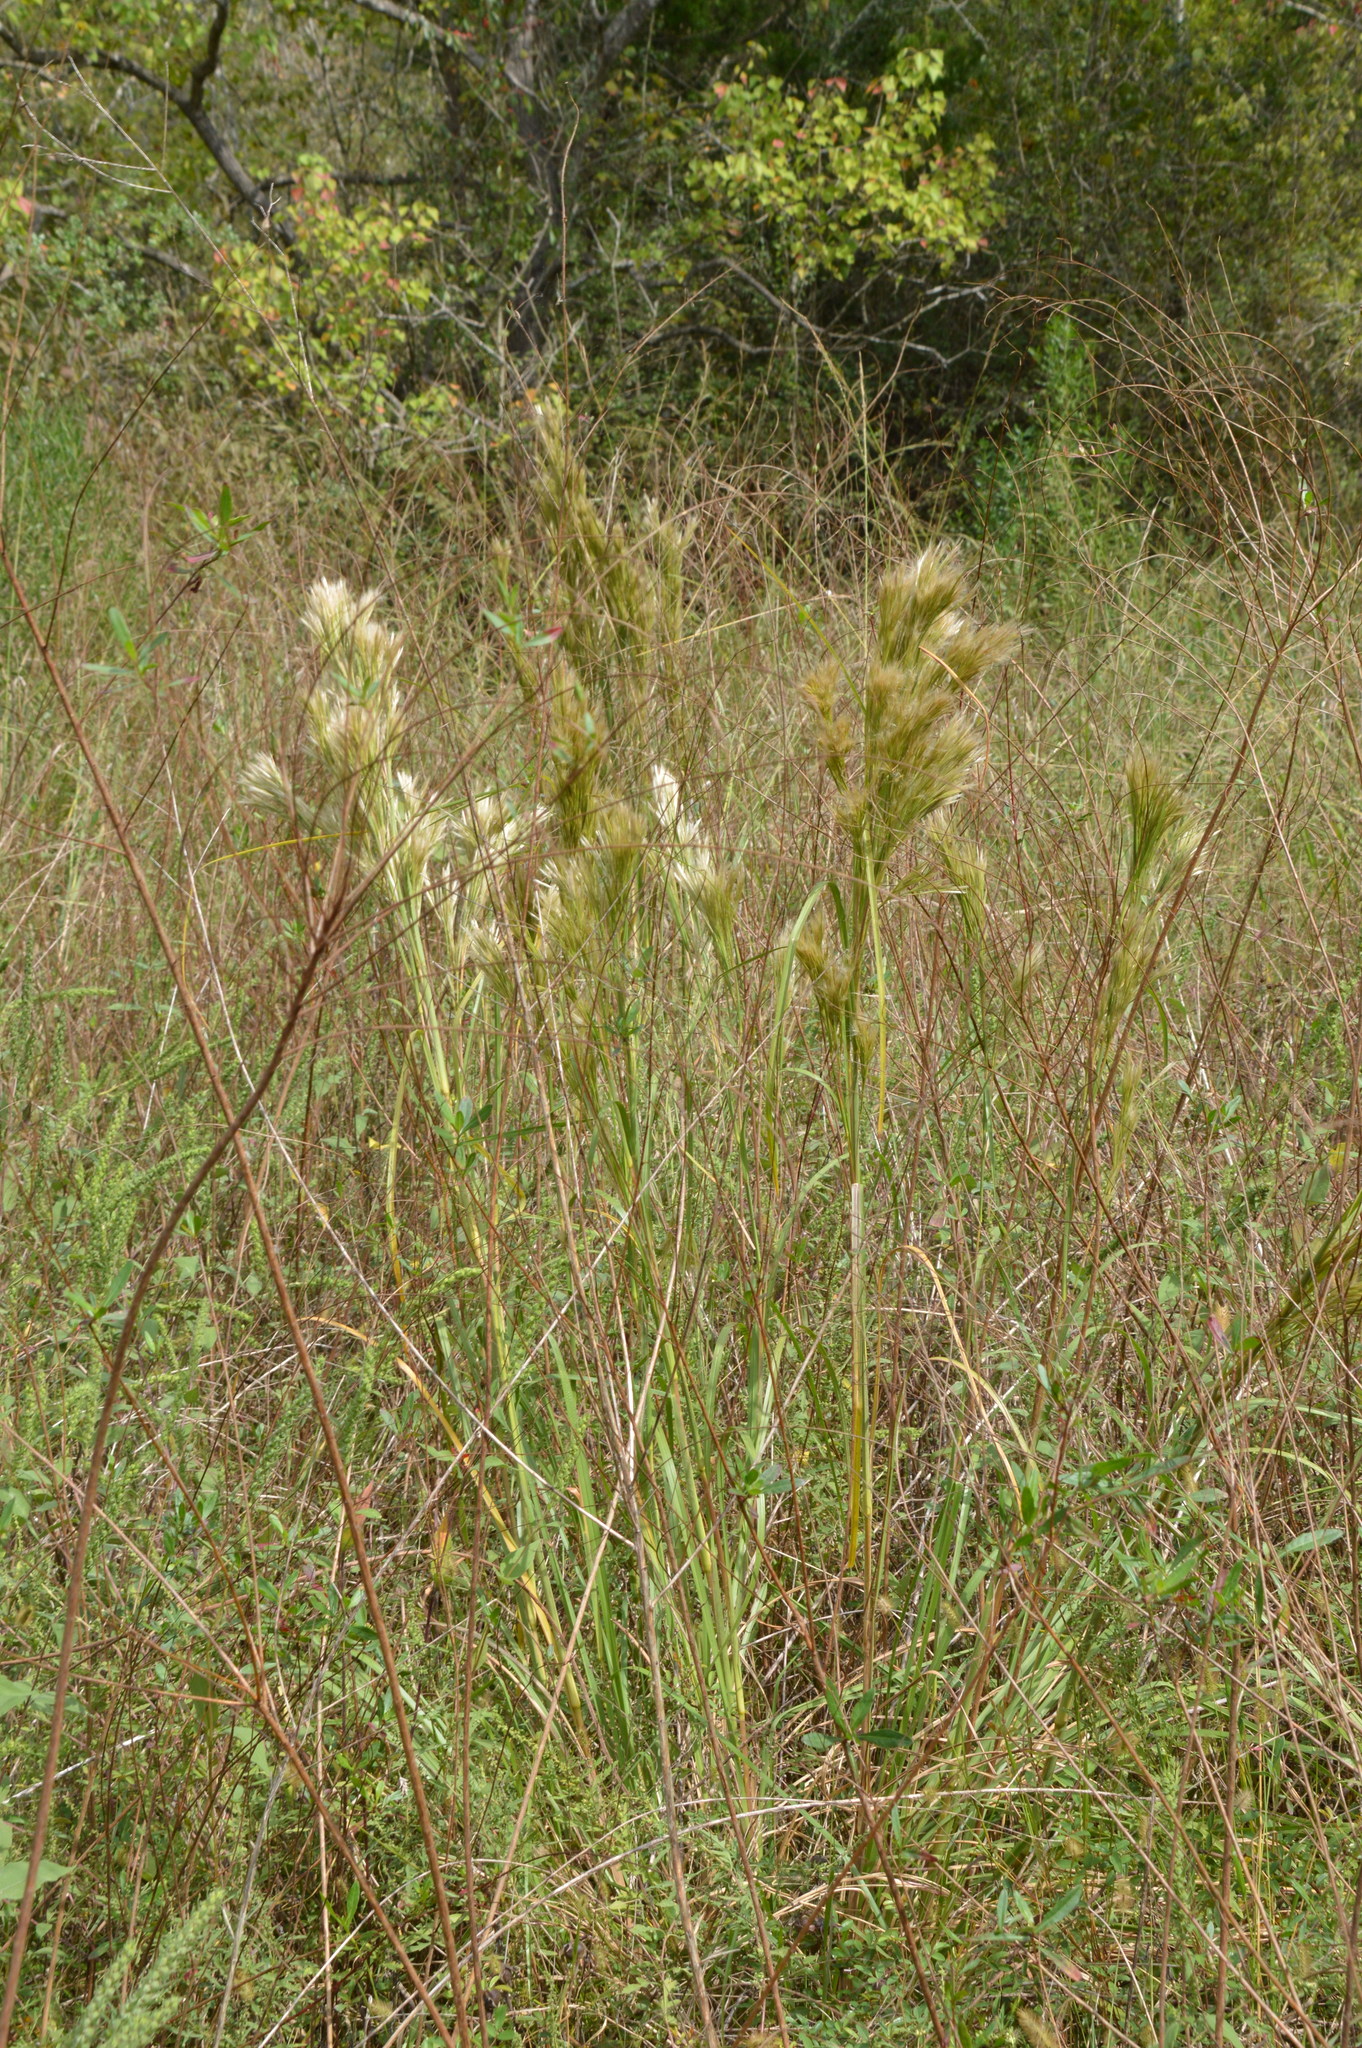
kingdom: Plantae
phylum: Tracheophyta
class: Liliopsida
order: Poales
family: Poaceae
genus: Andropogon
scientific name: Andropogon tenuispatheus
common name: Bushy bluestem
